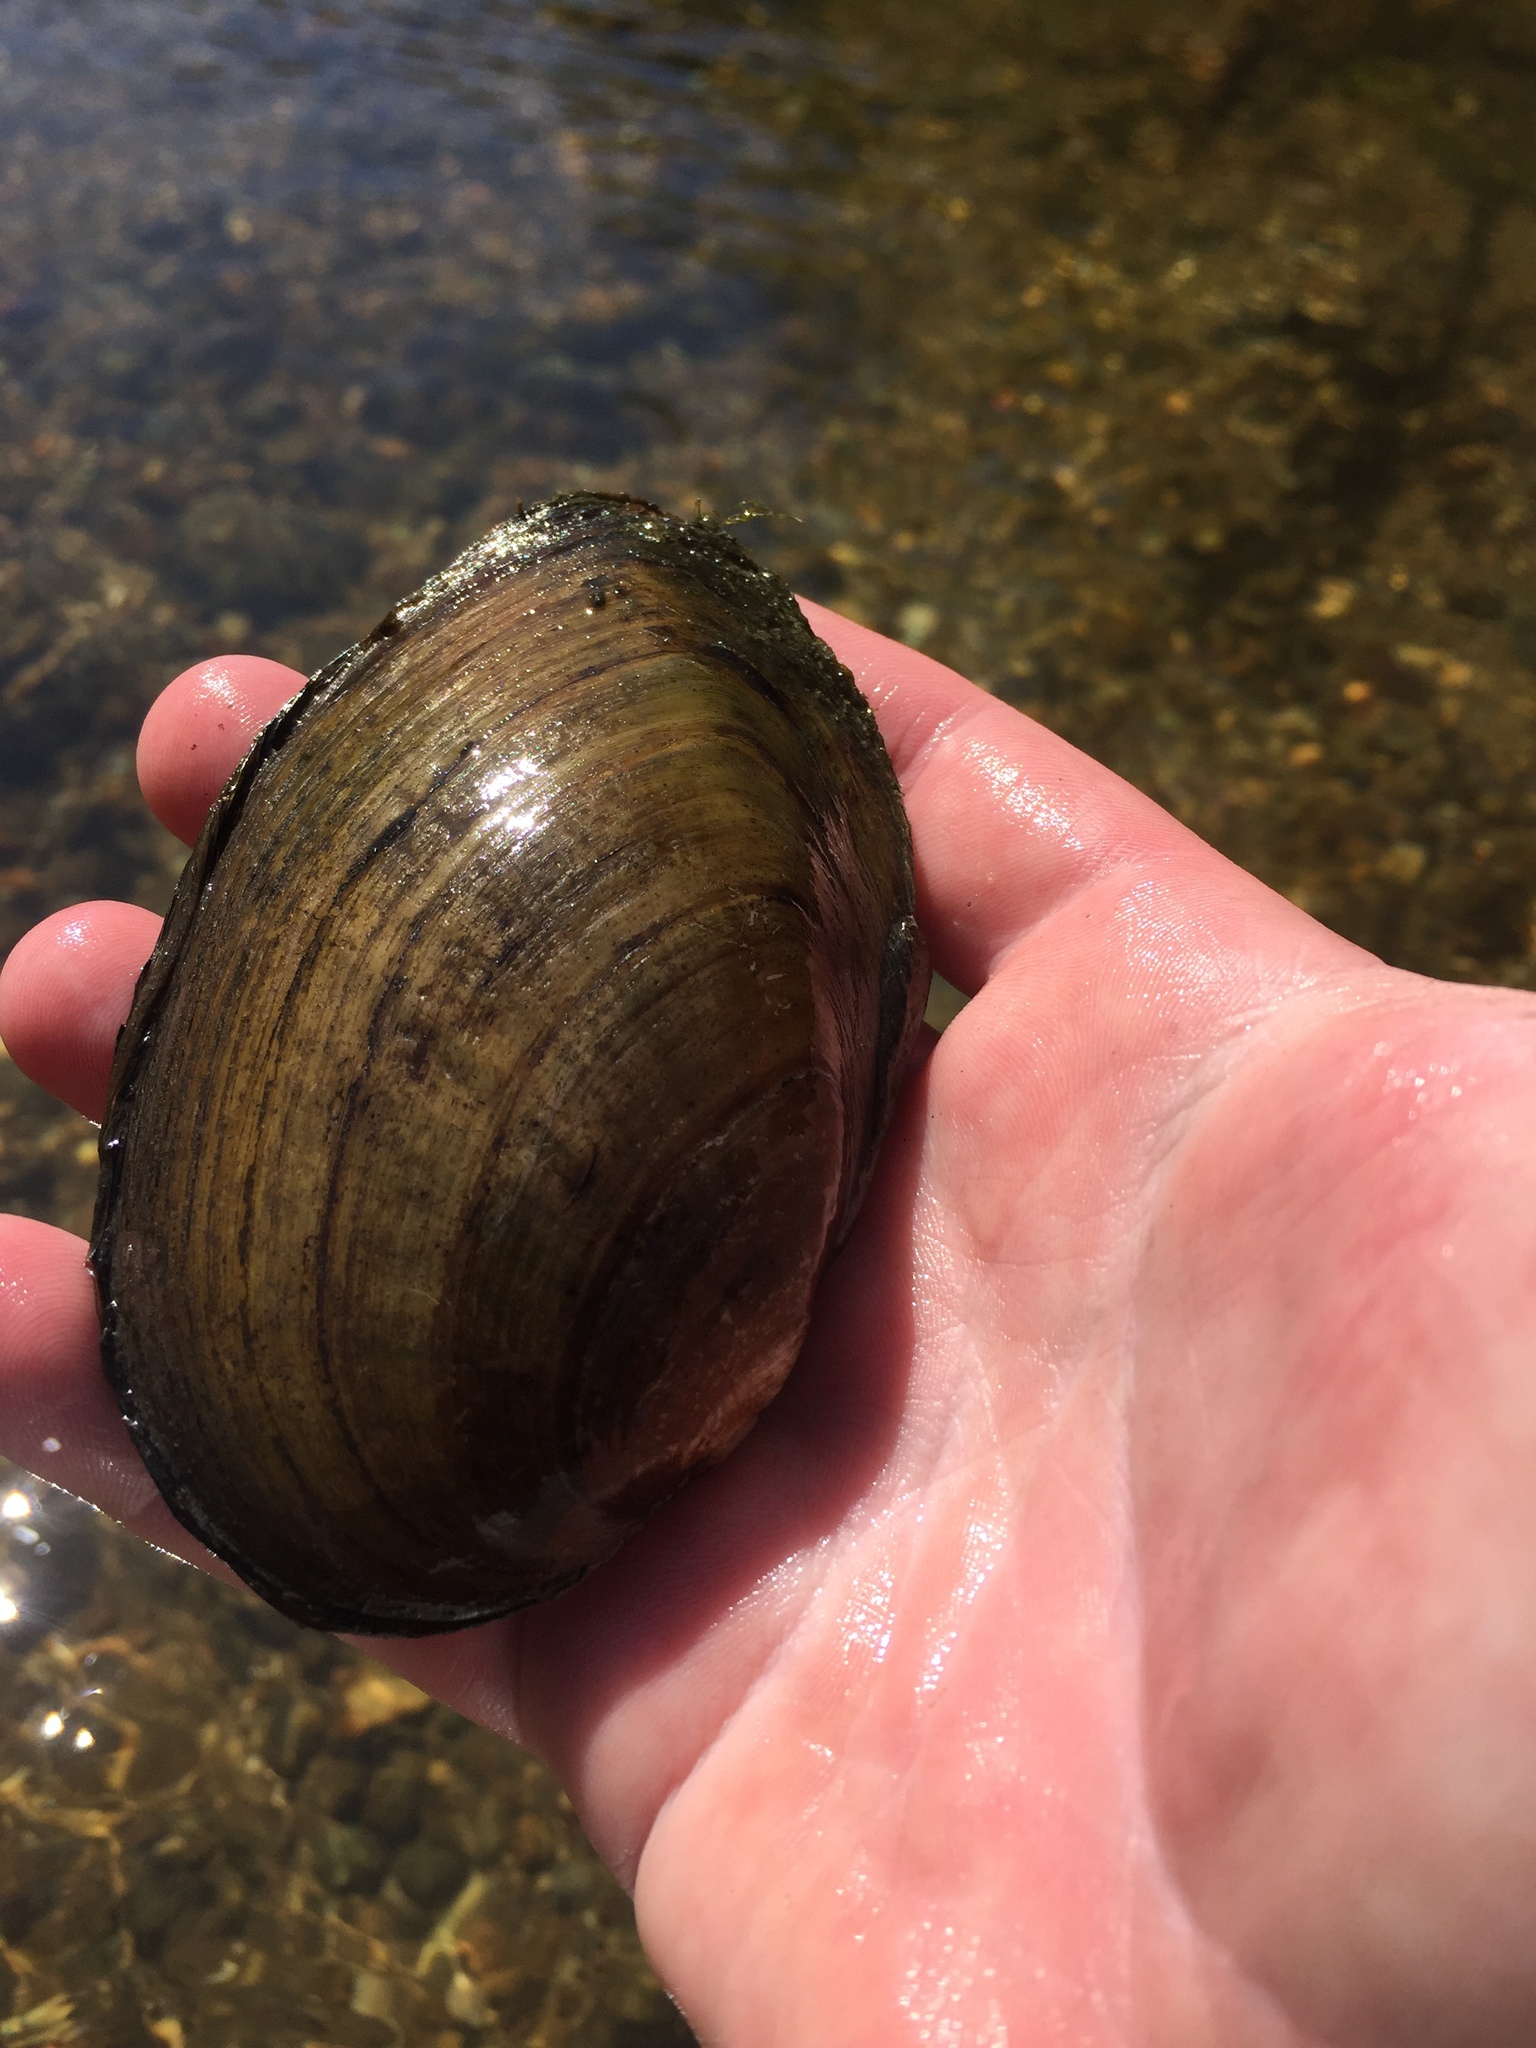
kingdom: Animalia
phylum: Mollusca
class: Bivalvia
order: Unionida
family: Unionidae
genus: Ortmanniana
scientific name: Ortmanniana ligamentina
